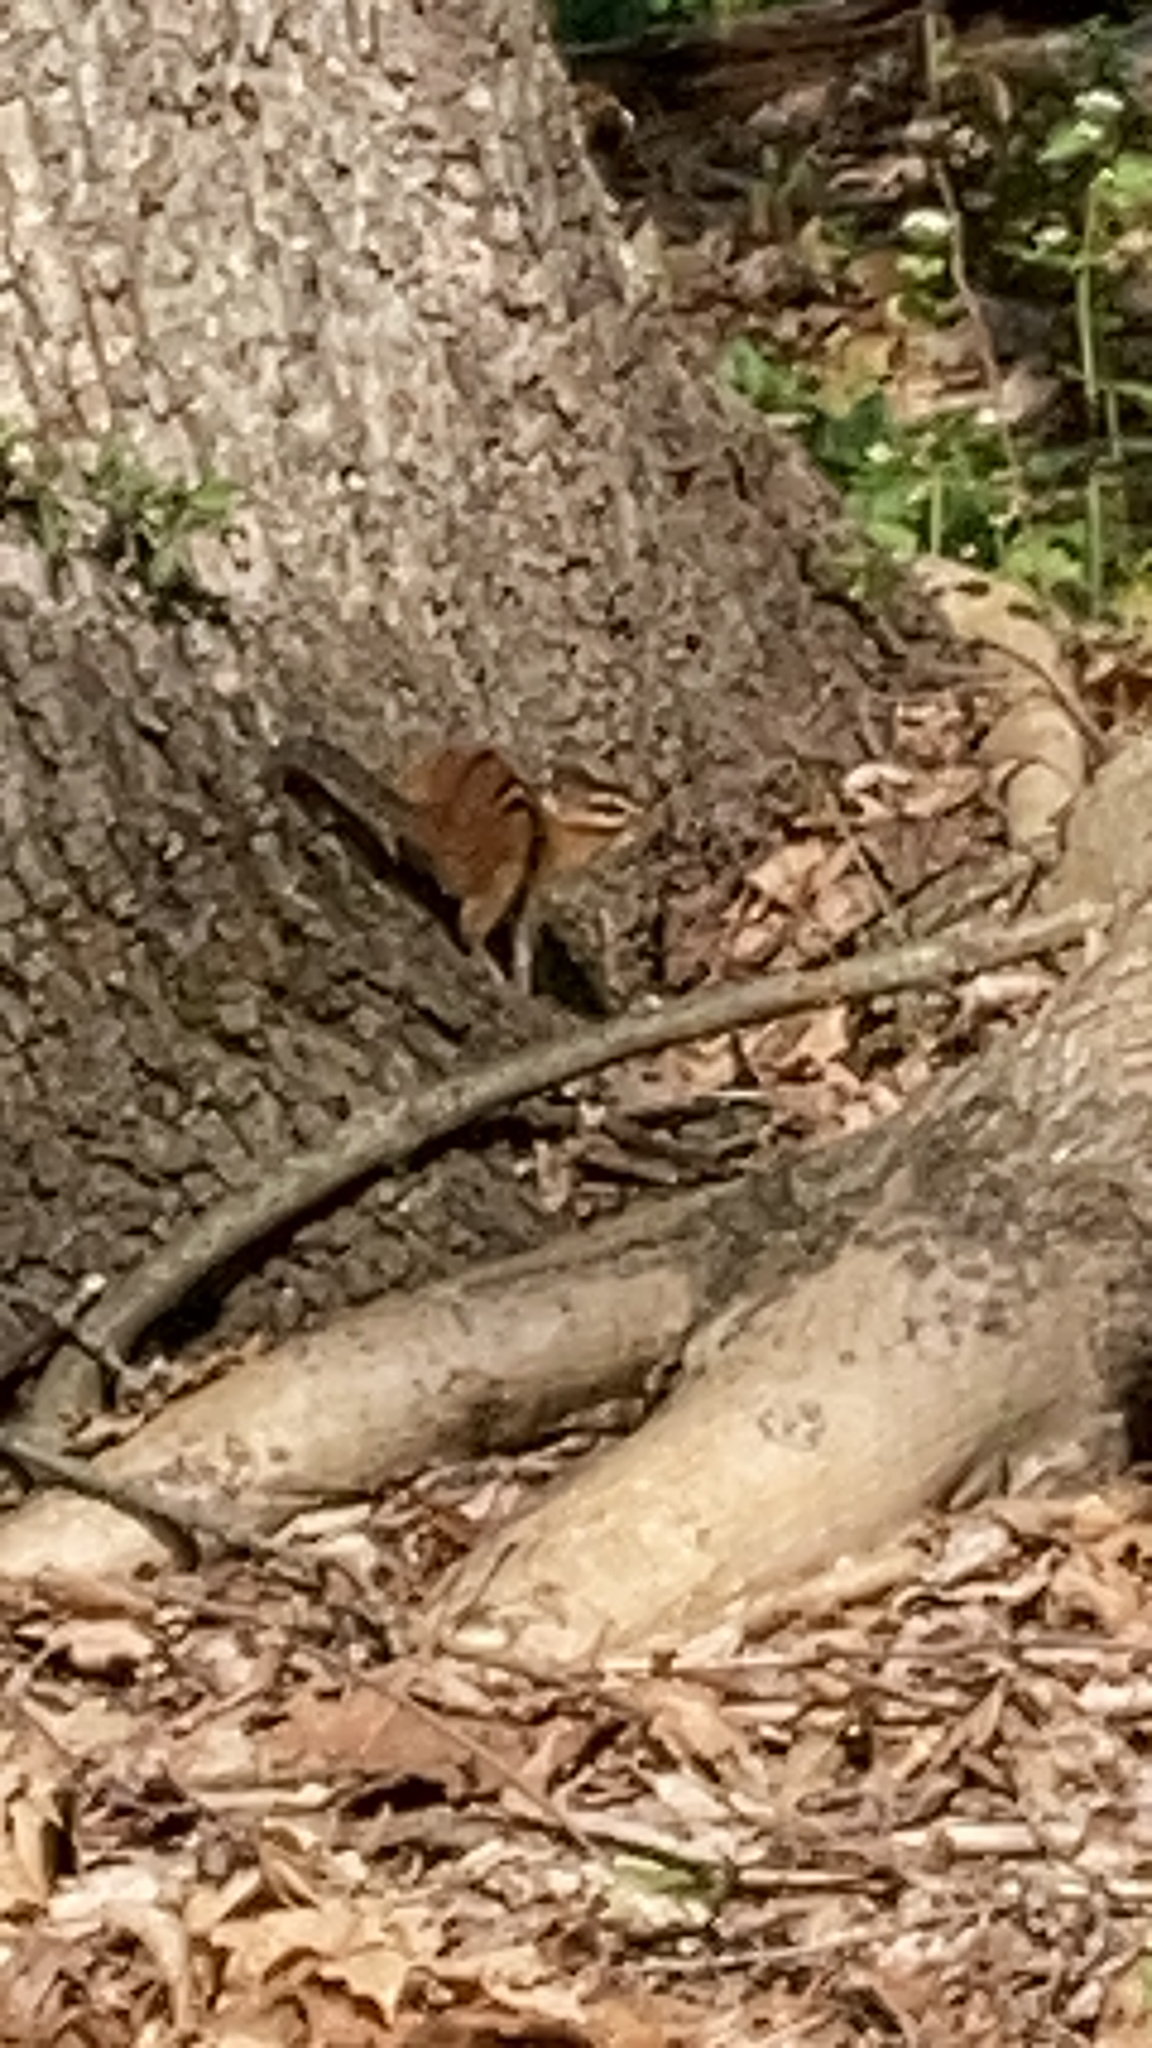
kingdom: Animalia
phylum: Chordata
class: Mammalia
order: Rodentia
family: Sciuridae
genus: Tamias
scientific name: Tamias striatus
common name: Eastern chipmunk
